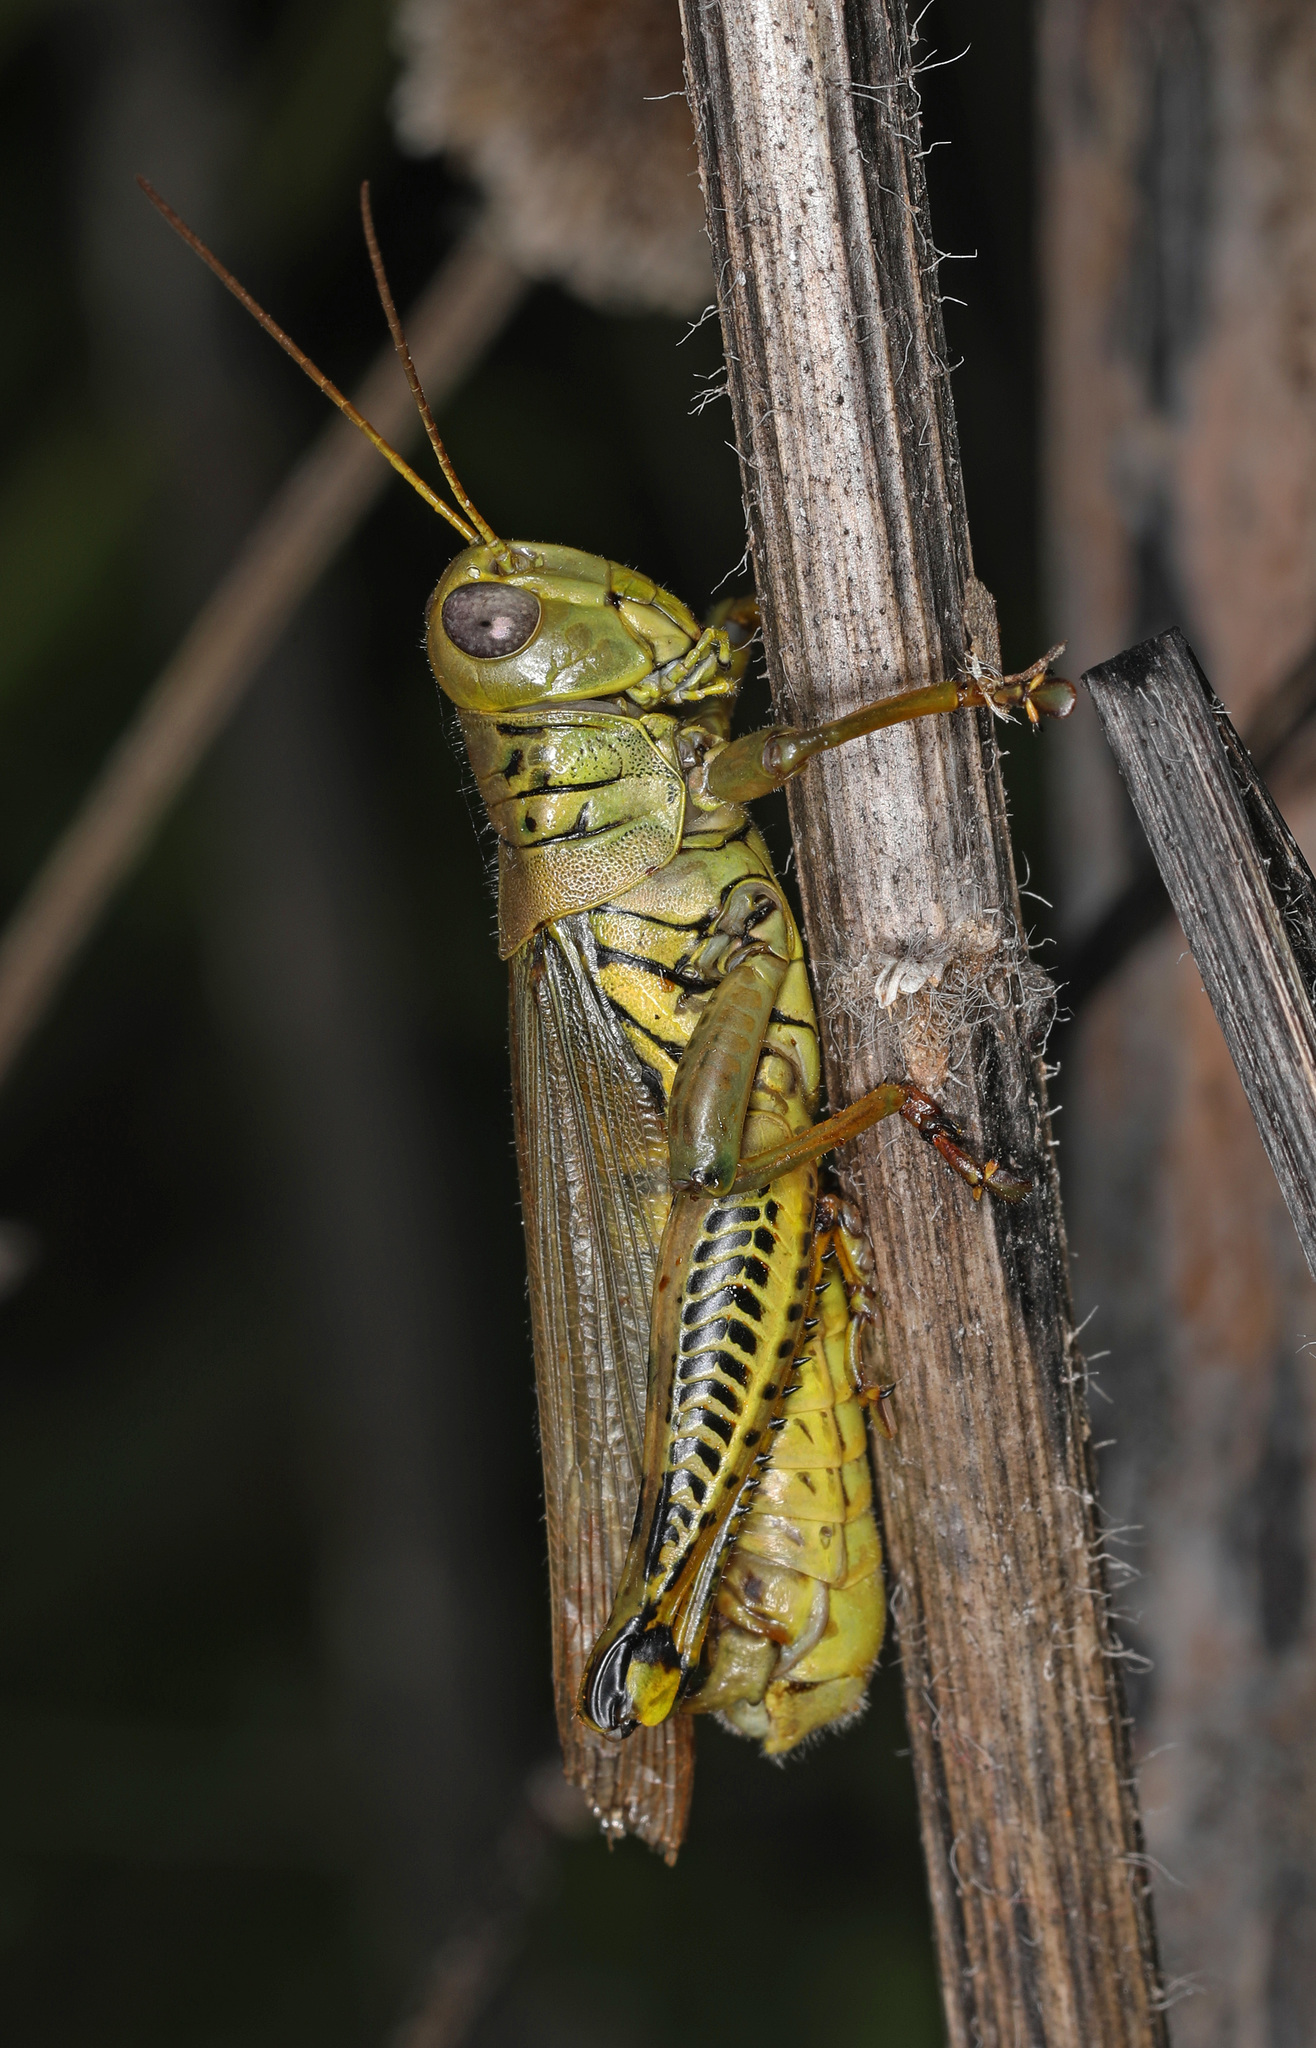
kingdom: Animalia
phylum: Arthropoda
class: Insecta
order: Orthoptera
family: Acrididae
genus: Melanoplus
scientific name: Melanoplus differentialis
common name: Differential grasshopper
